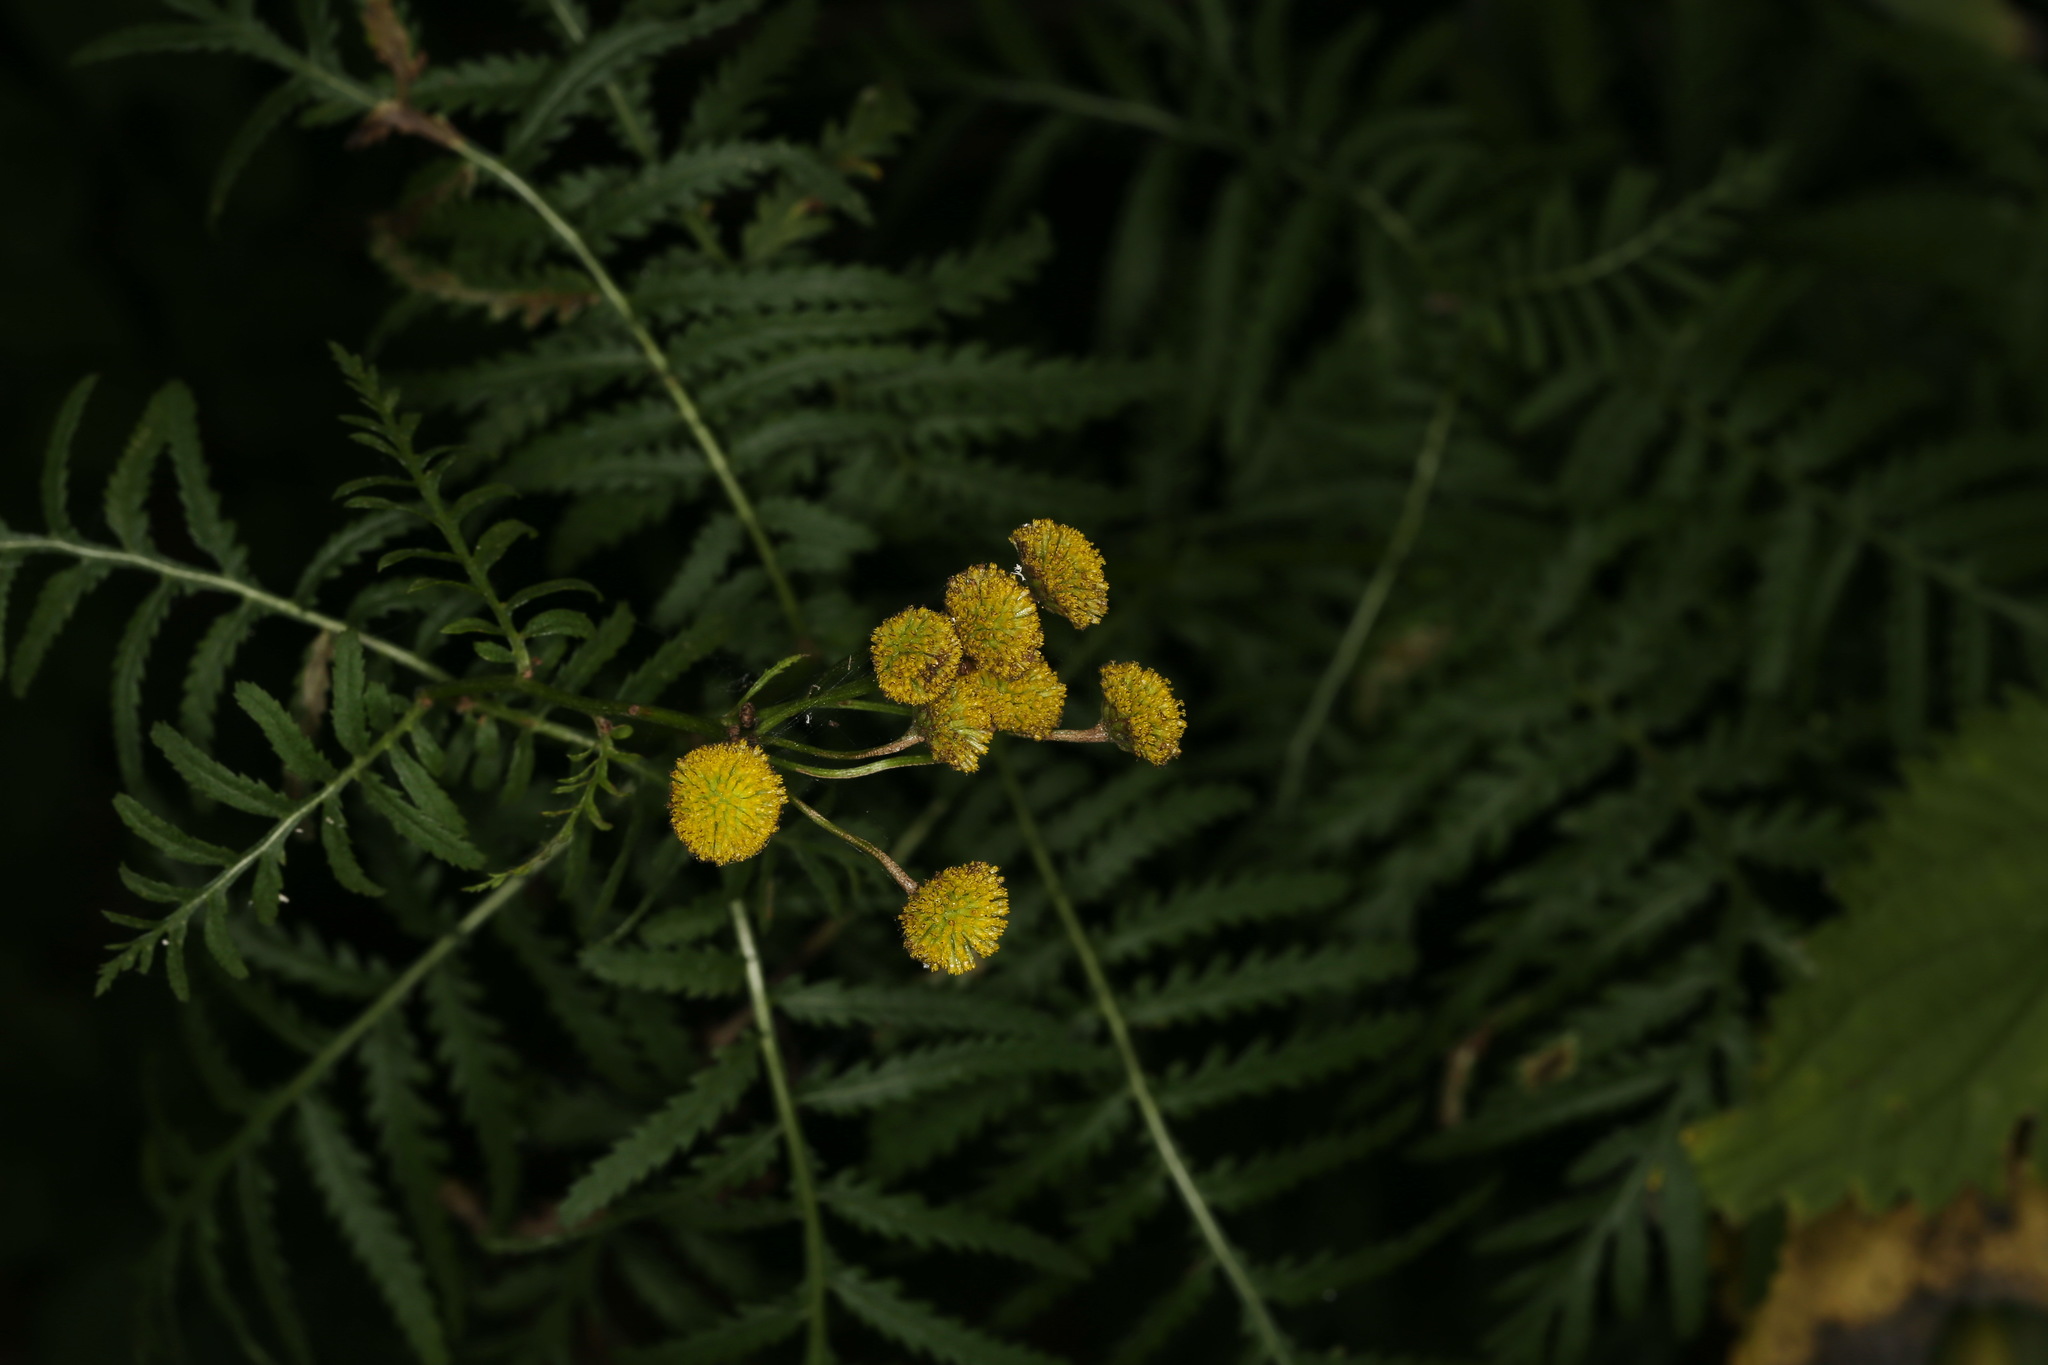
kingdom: Plantae
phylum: Tracheophyta
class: Magnoliopsida
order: Asterales
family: Asteraceae
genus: Tanacetum
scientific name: Tanacetum vulgare
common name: Common tansy
